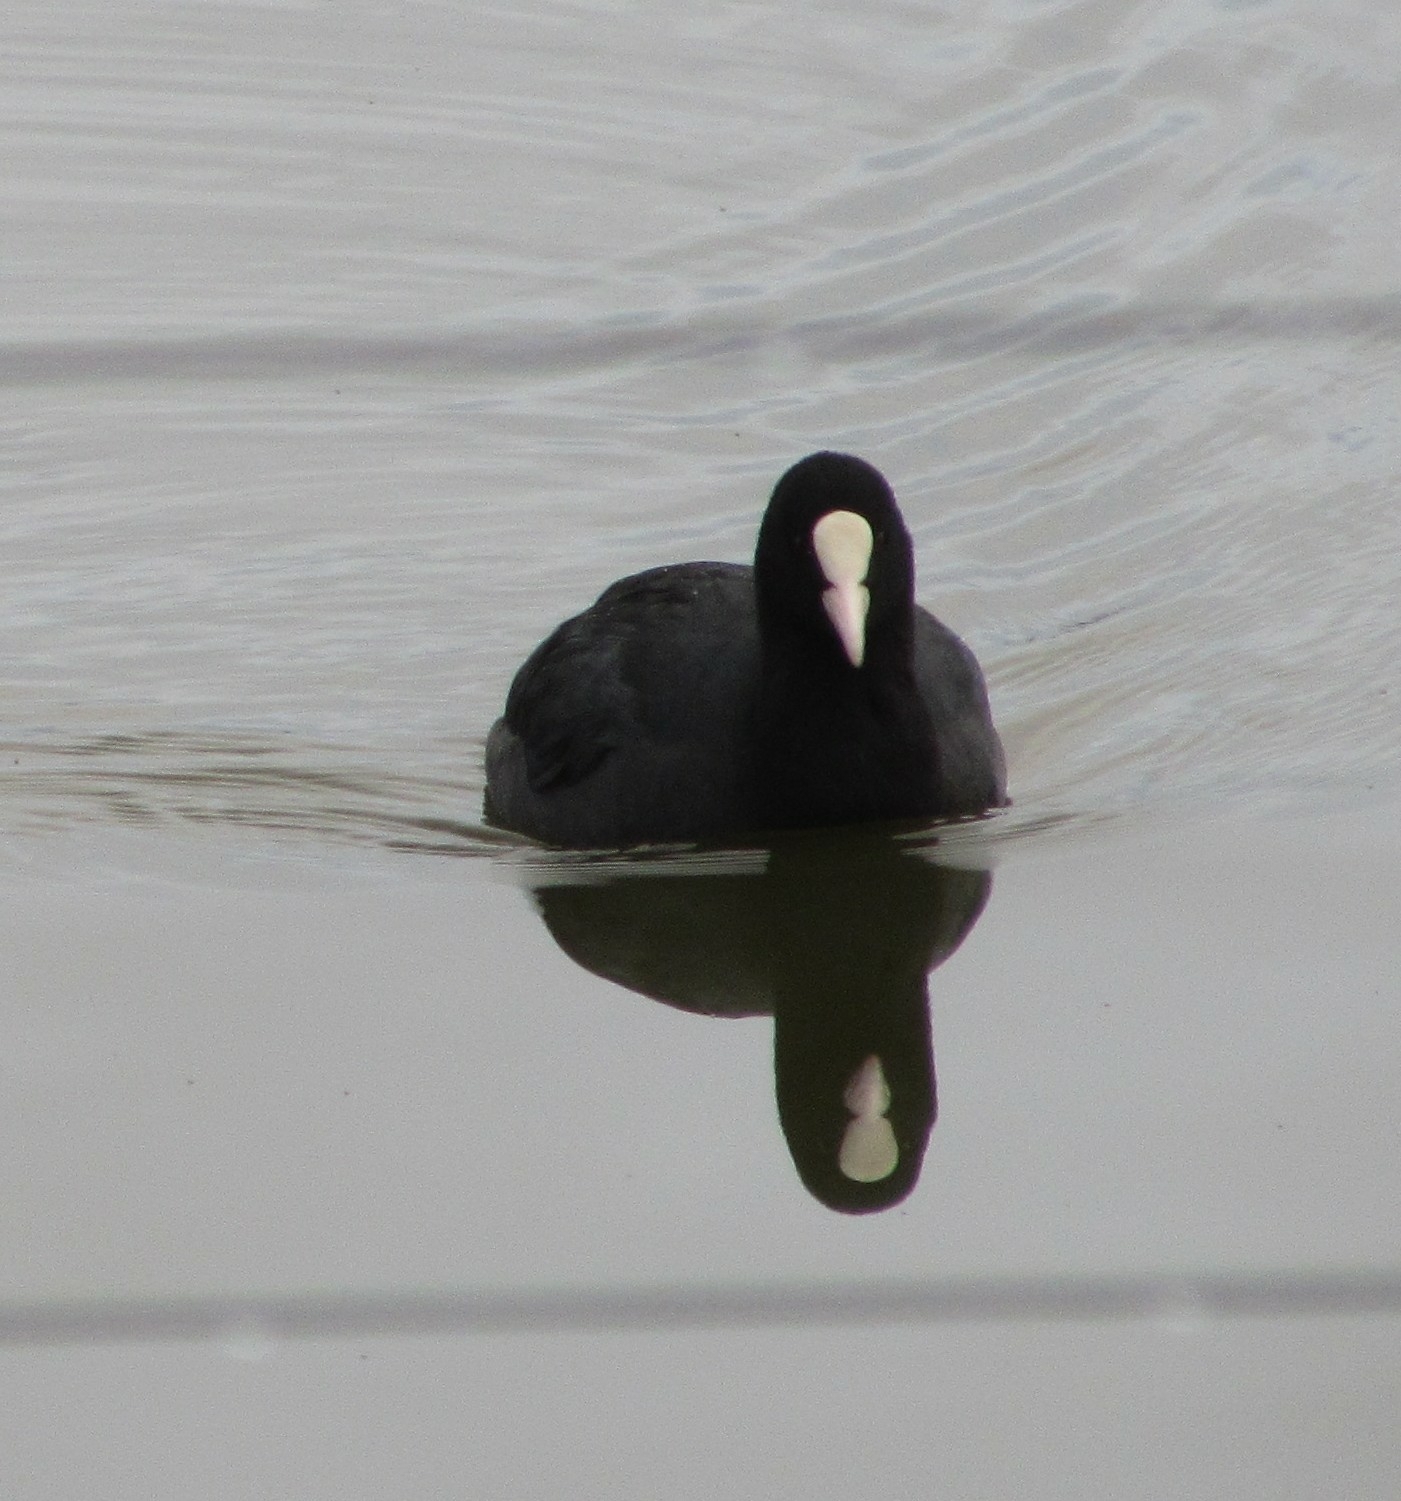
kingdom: Animalia
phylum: Chordata
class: Aves
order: Gruiformes
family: Rallidae
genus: Fulica
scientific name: Fulica atra
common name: Eurasian coot
